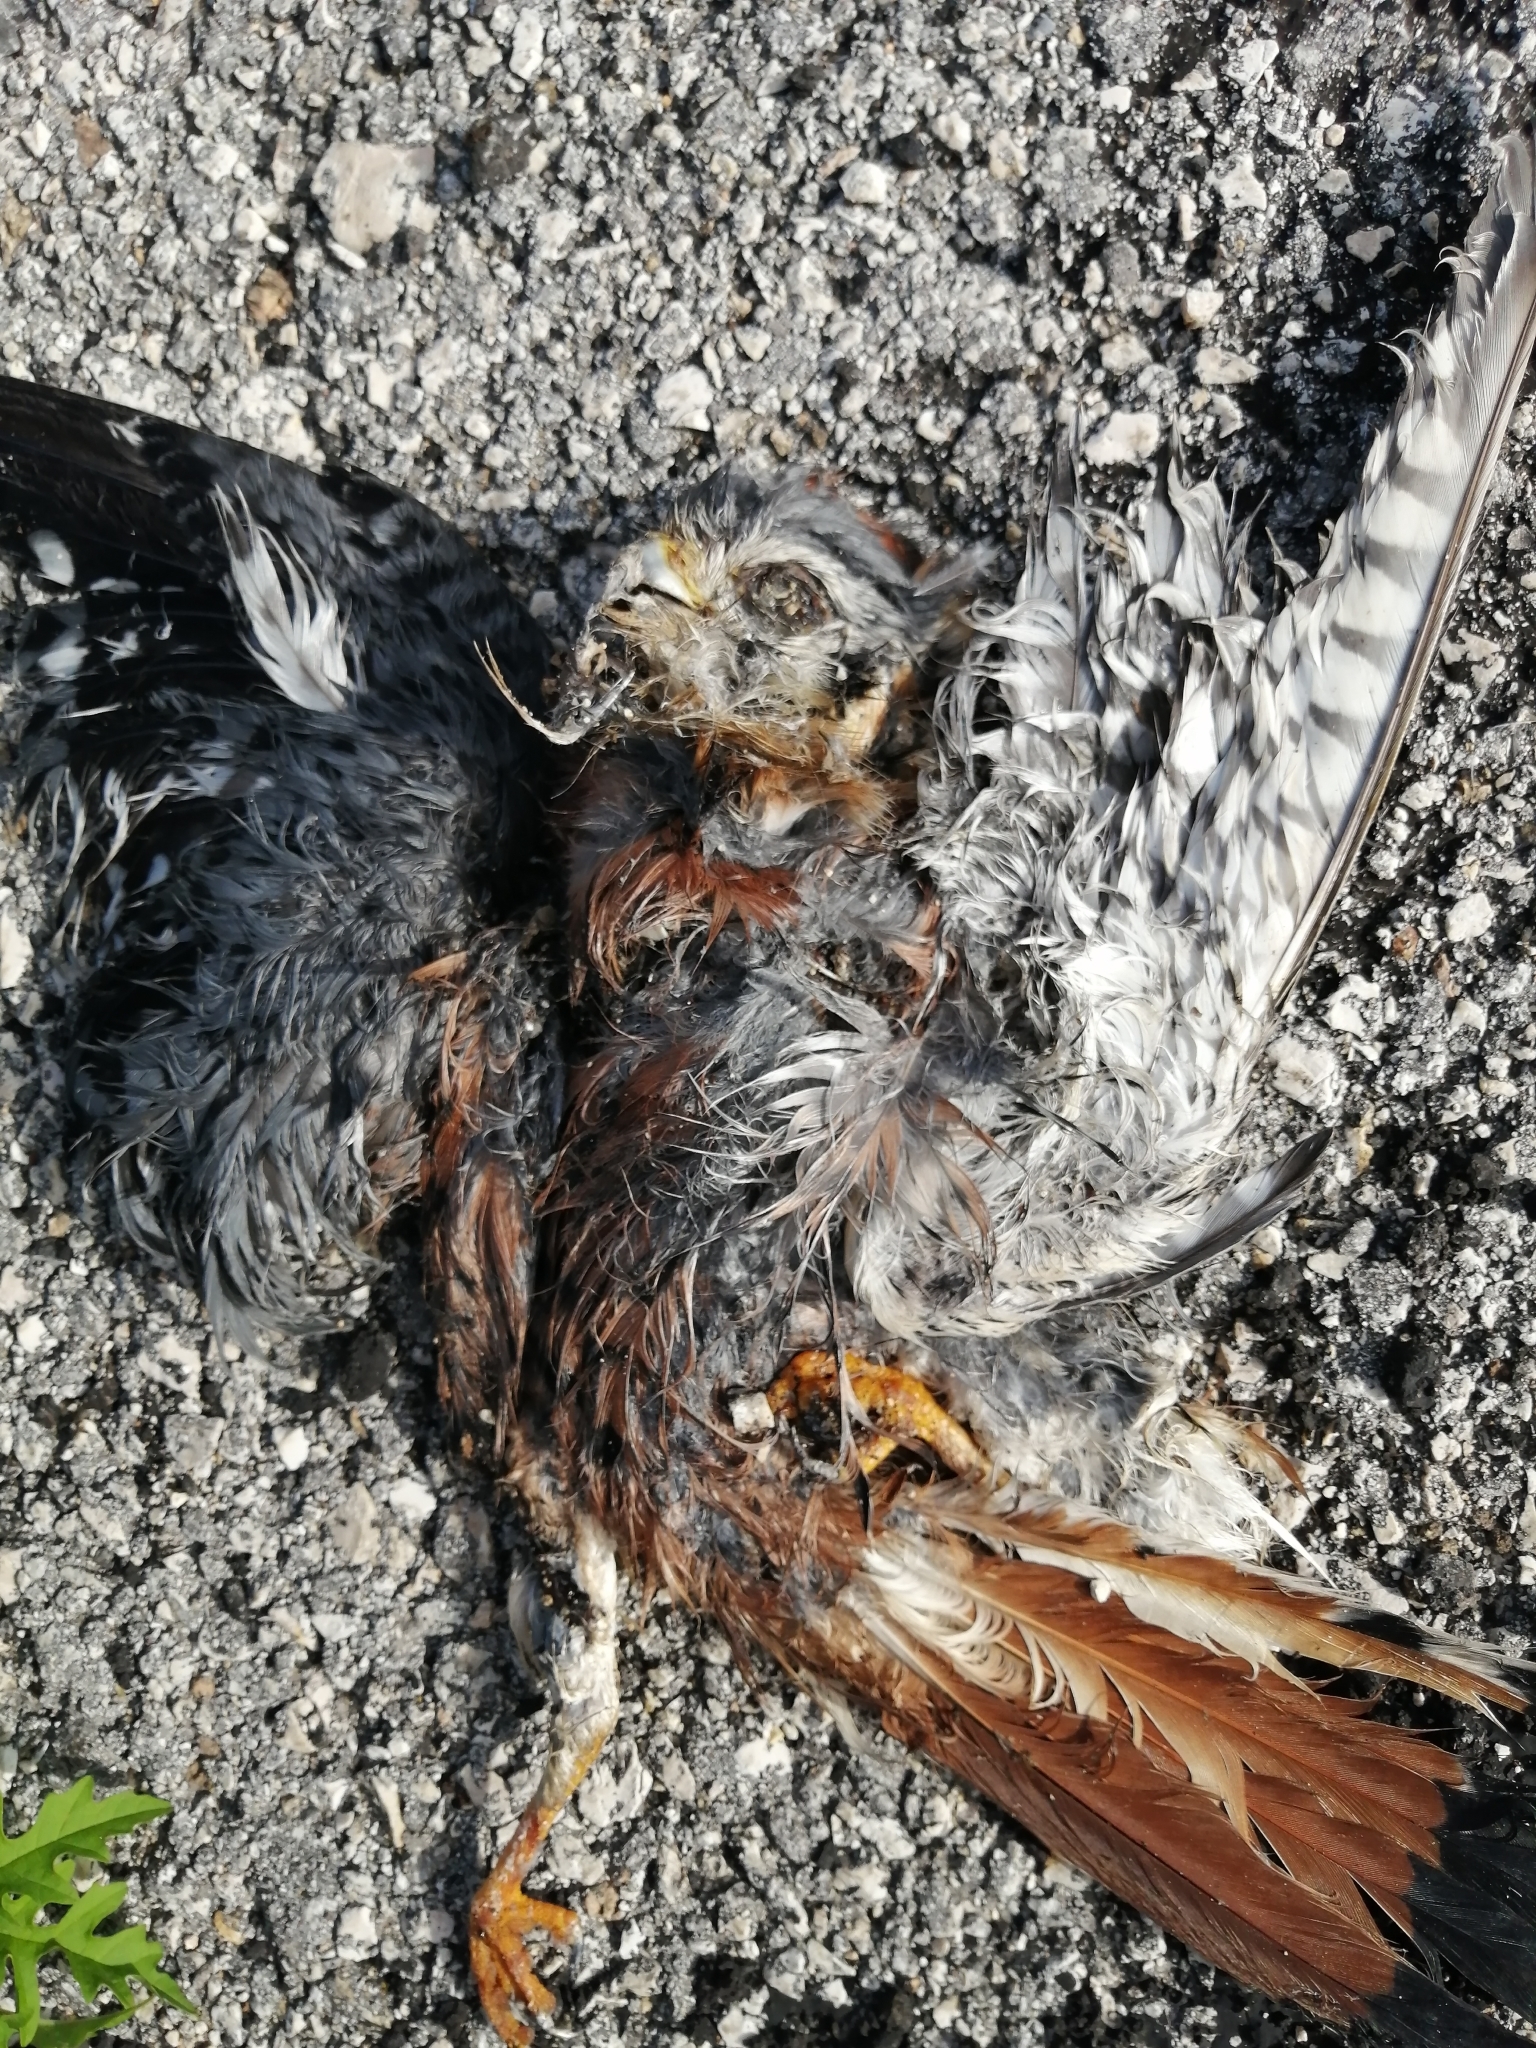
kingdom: Animalia
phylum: Chordata
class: Aves
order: Falconiformes
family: Falconidae
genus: Falco
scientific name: Falco sparverius
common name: American kestrel
